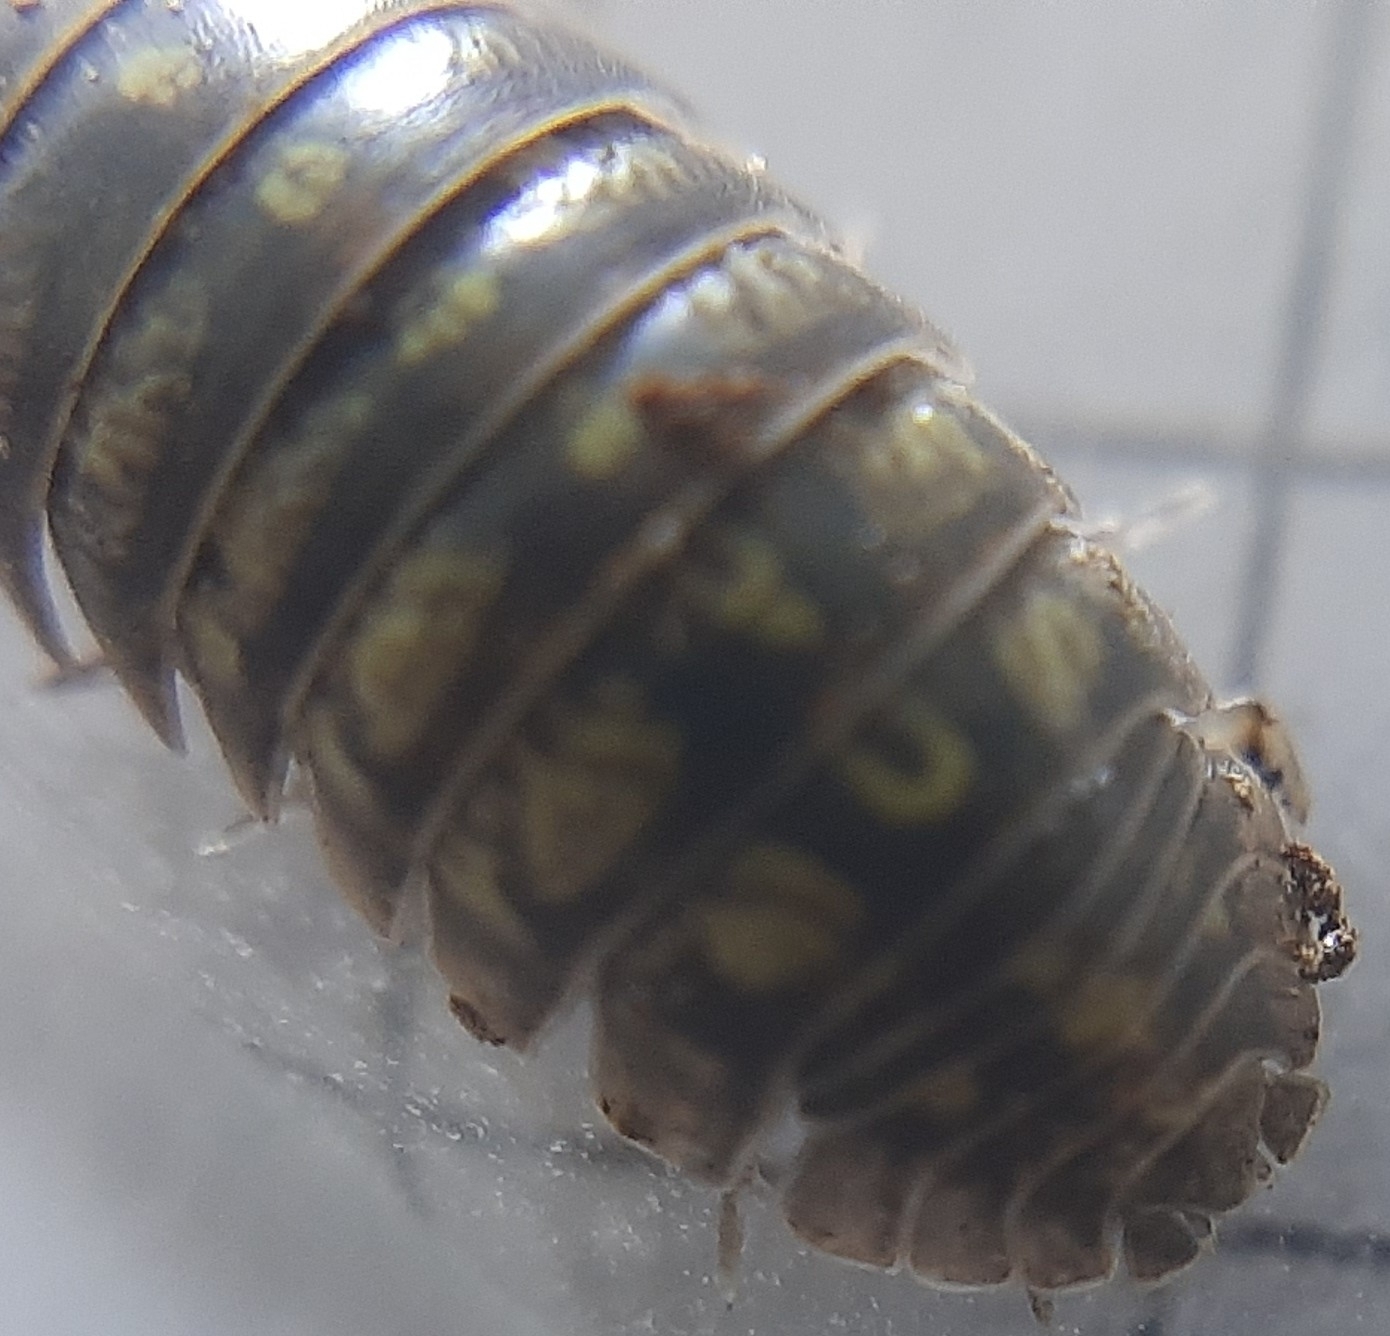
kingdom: Animalia
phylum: Arthropoda
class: Malacostraca
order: Isopoda
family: Armadillidiidae
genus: Armadillidium
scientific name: Armadillidium vulgare
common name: Common pill woodlouse
